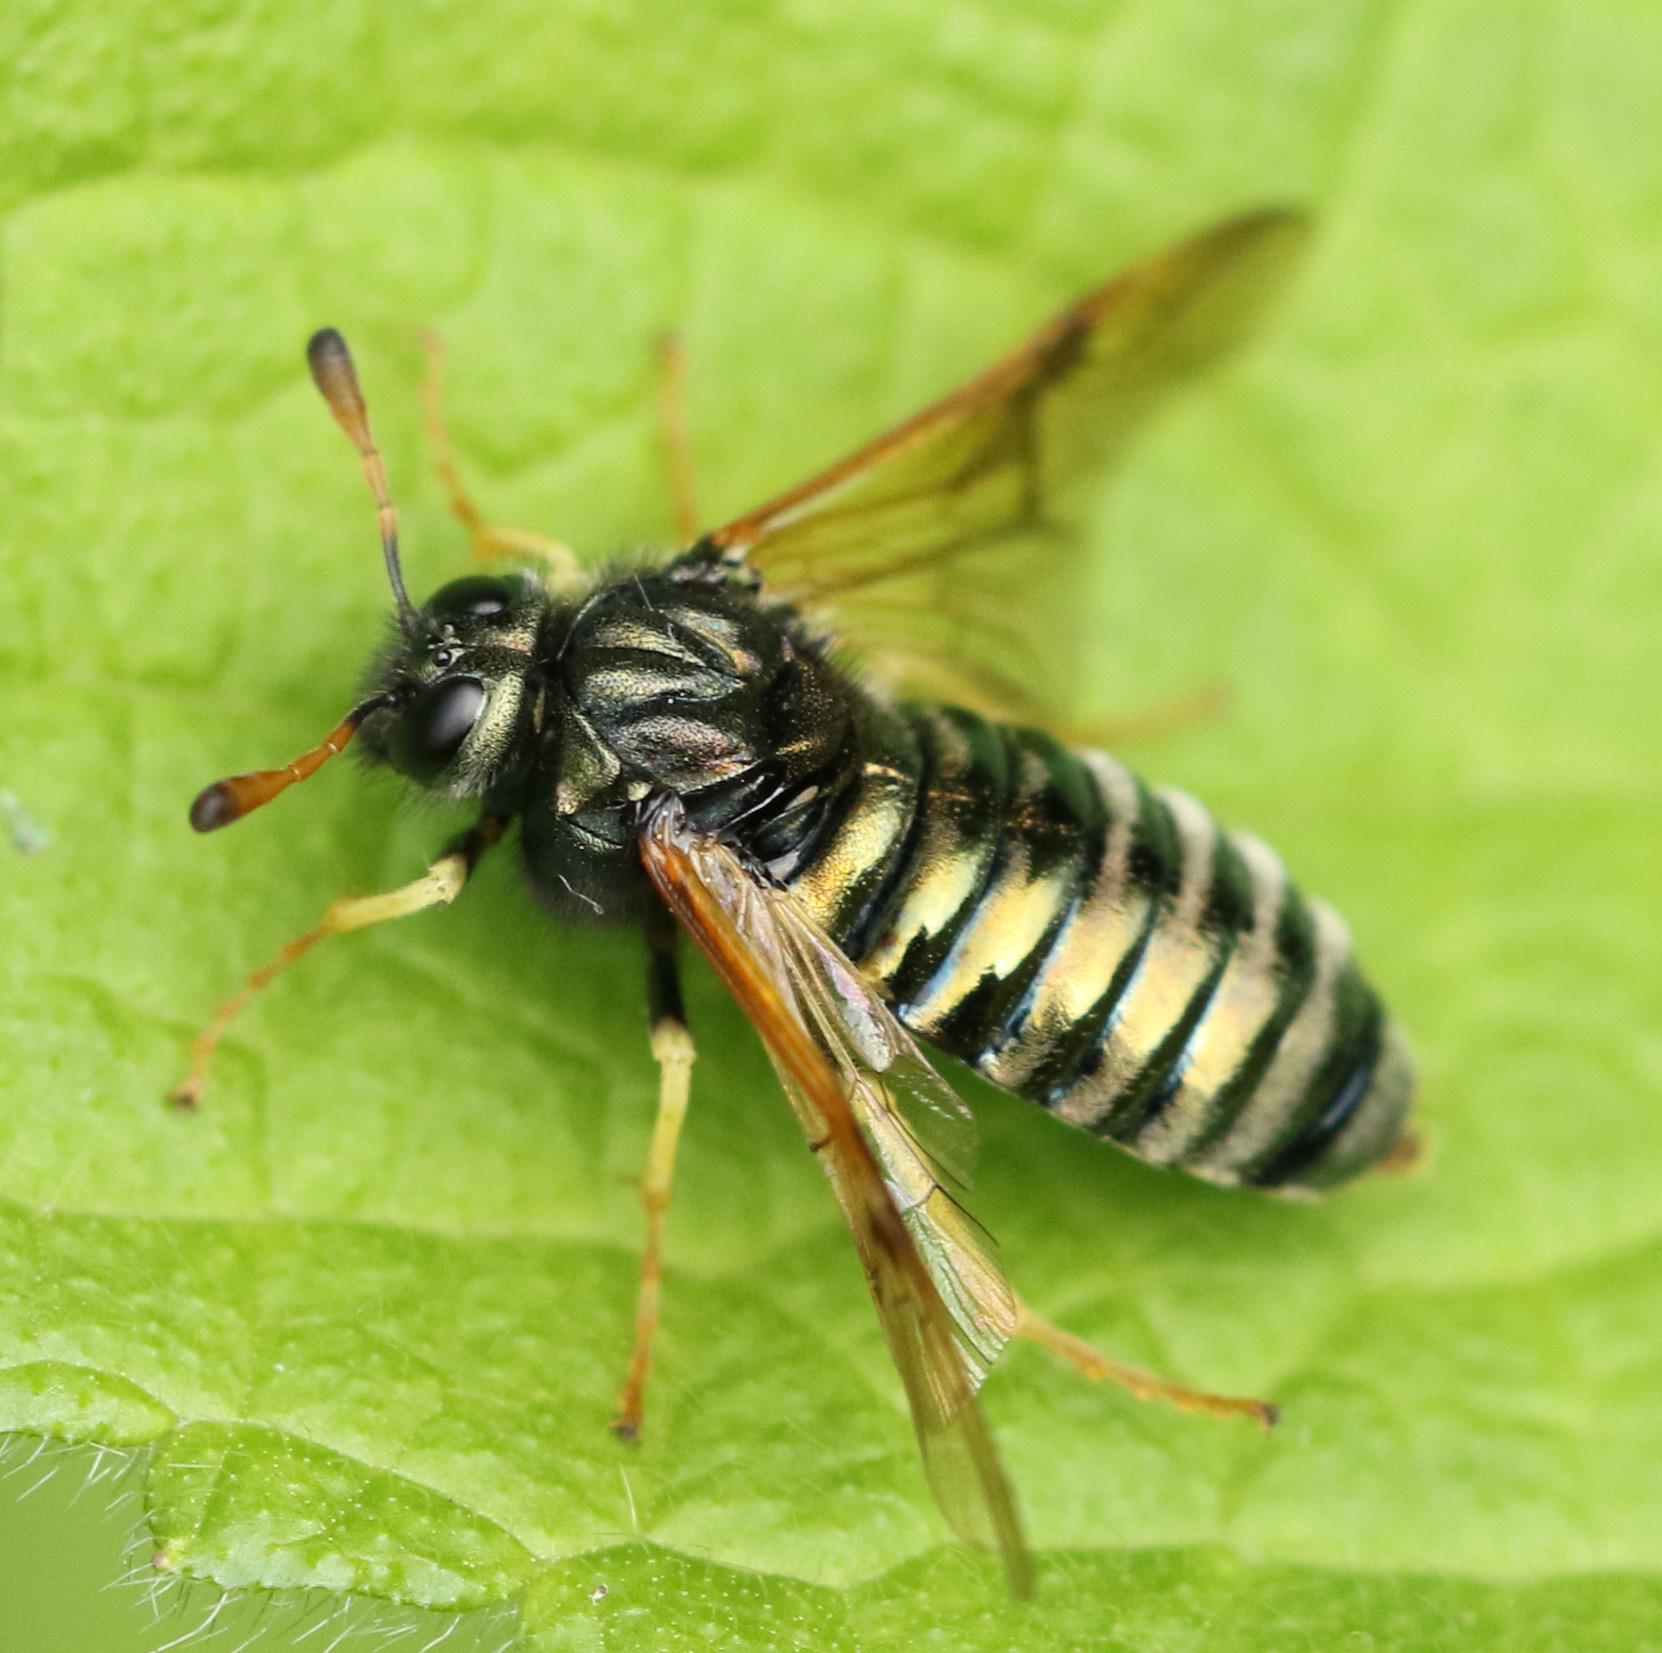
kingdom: Animalia
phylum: Arthropoda
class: Insecta
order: Hymenoptera
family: Cimbicidae
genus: Abia
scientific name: Abia candens
